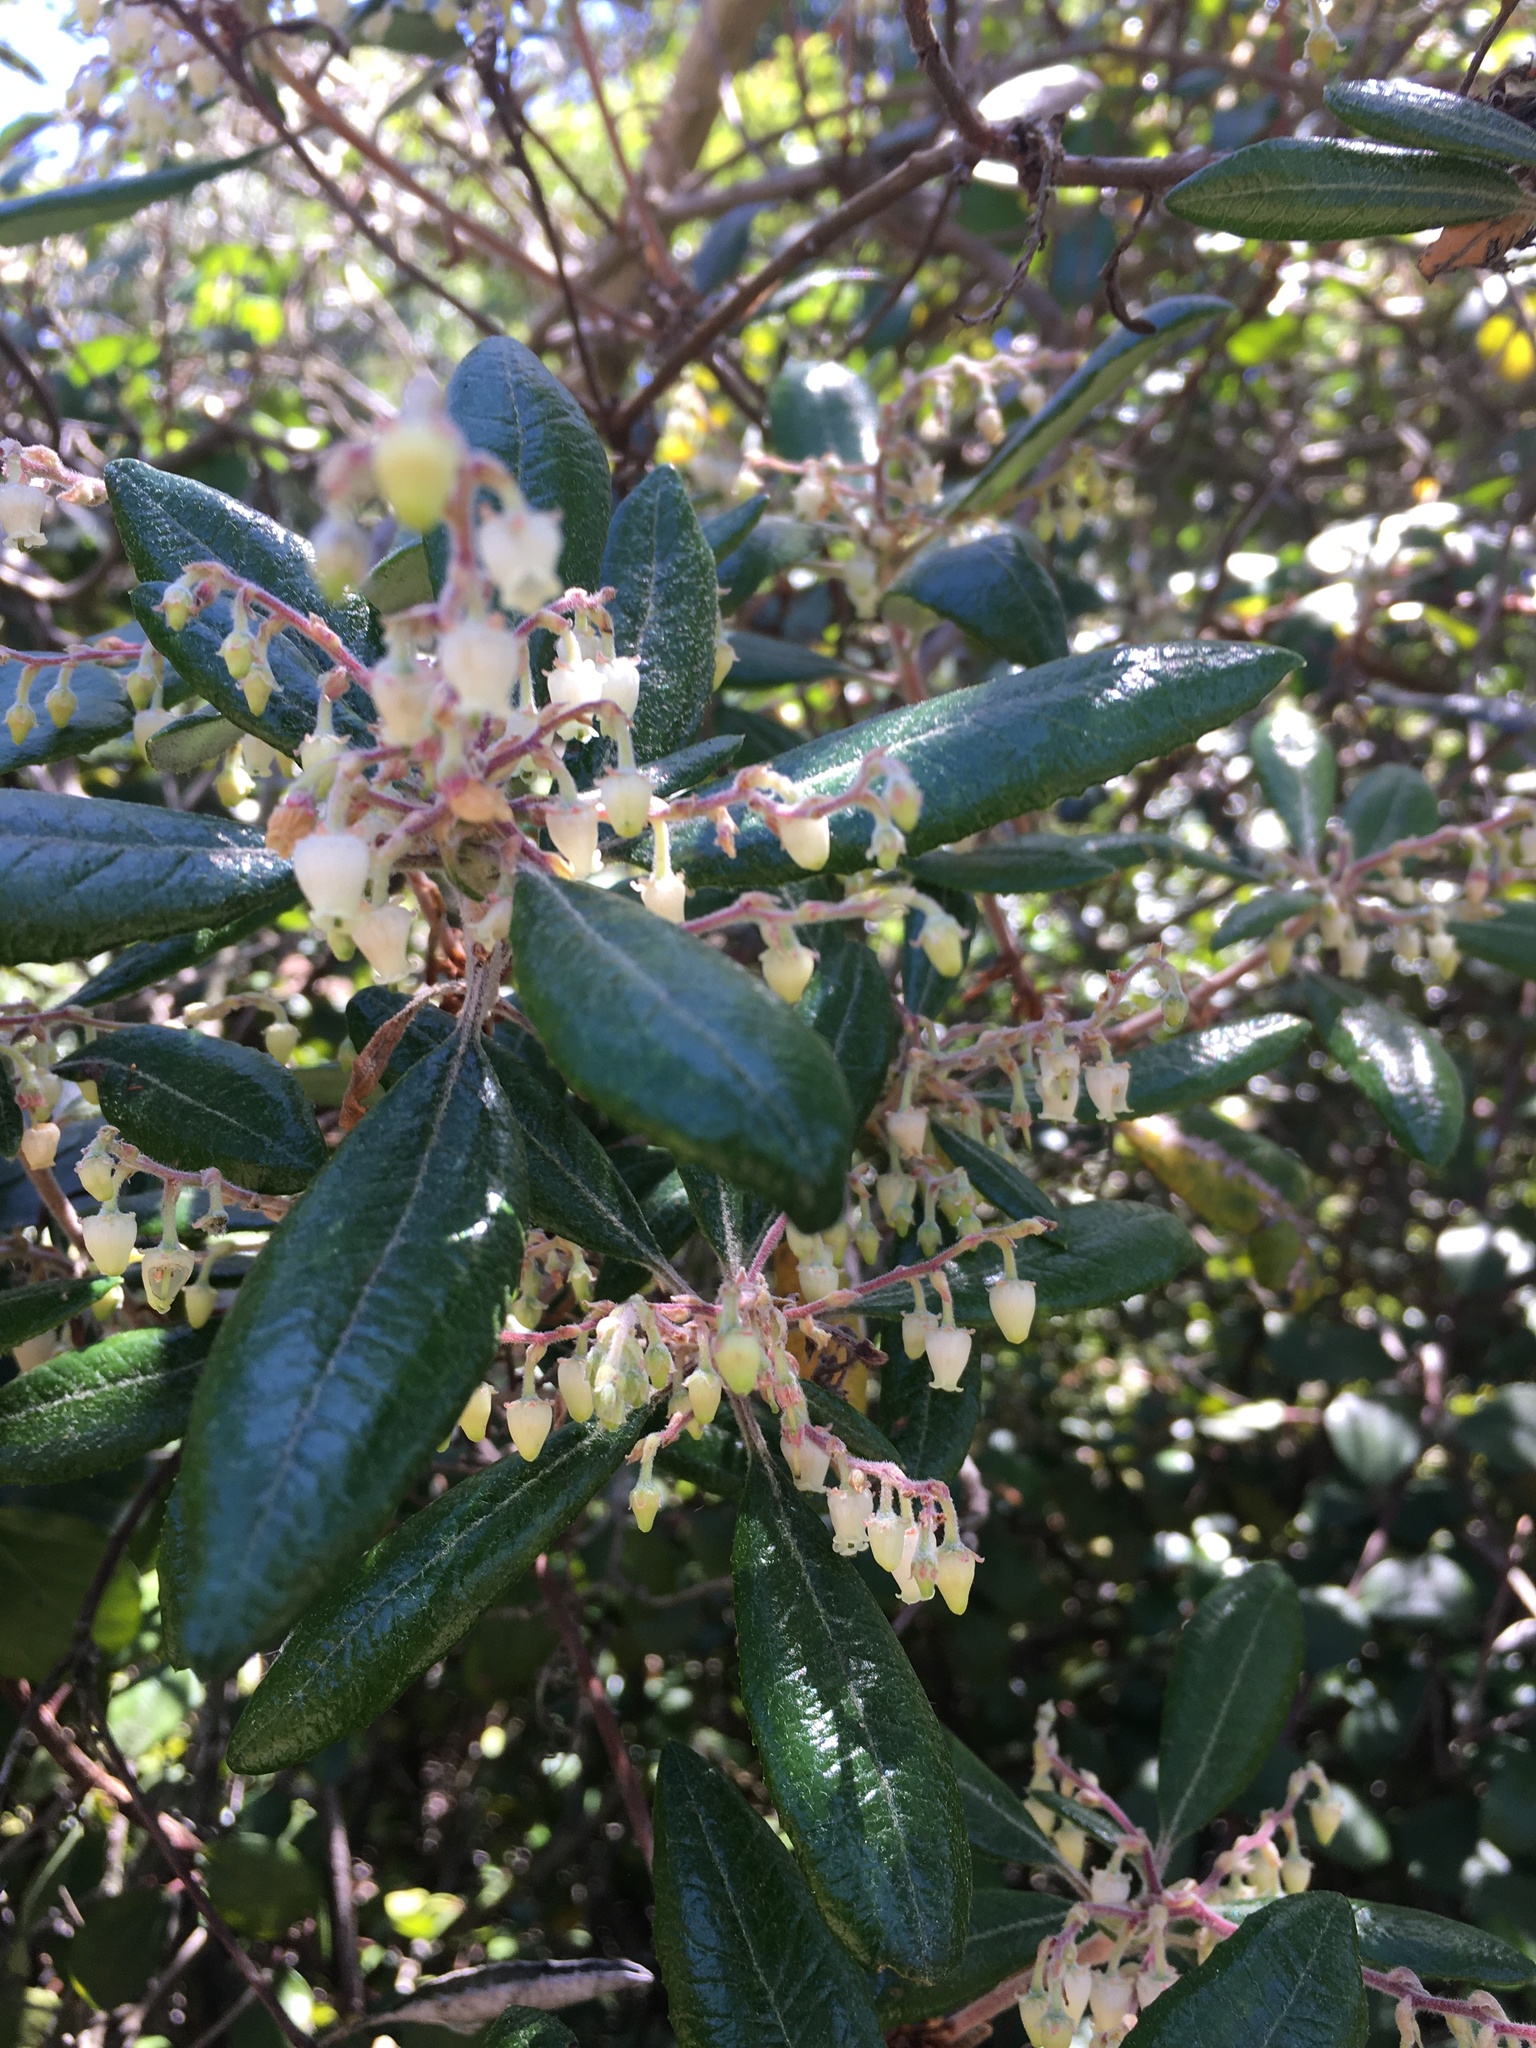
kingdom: Plantae
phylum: Tracheophyta
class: Magnoliopsida
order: Ericales
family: Ericaceae
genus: Comarostaphylis
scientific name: Comarostaphylis diversifolia
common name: Summer-holly
